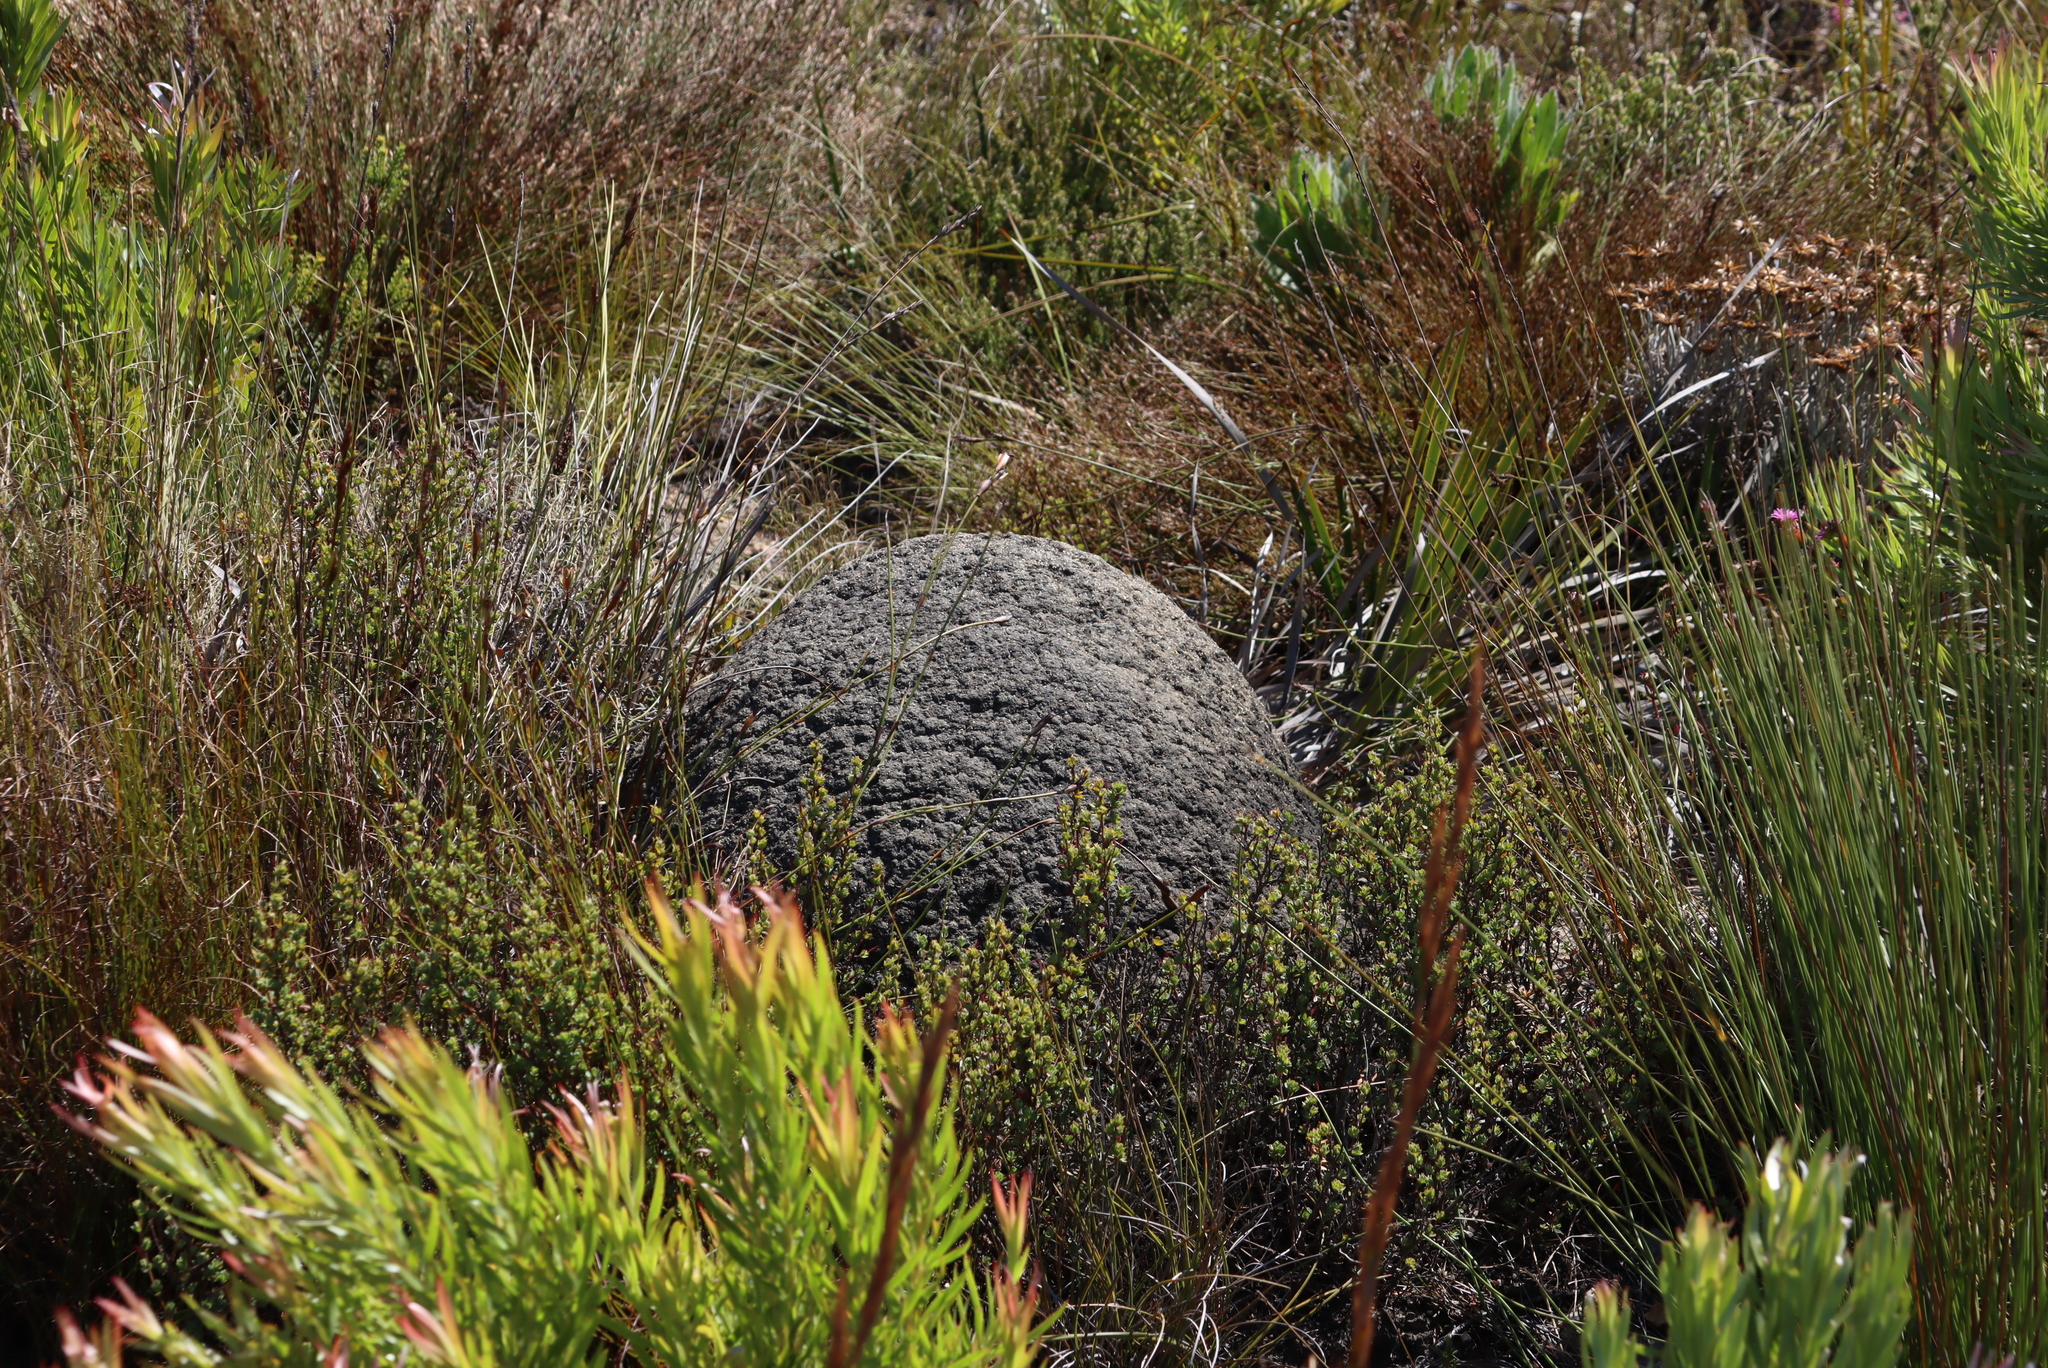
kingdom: Animalia
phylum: Arthropoda
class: Insecta
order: Blattodea
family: Termitidae
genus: Amitermes
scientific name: Amitermes hastatus
